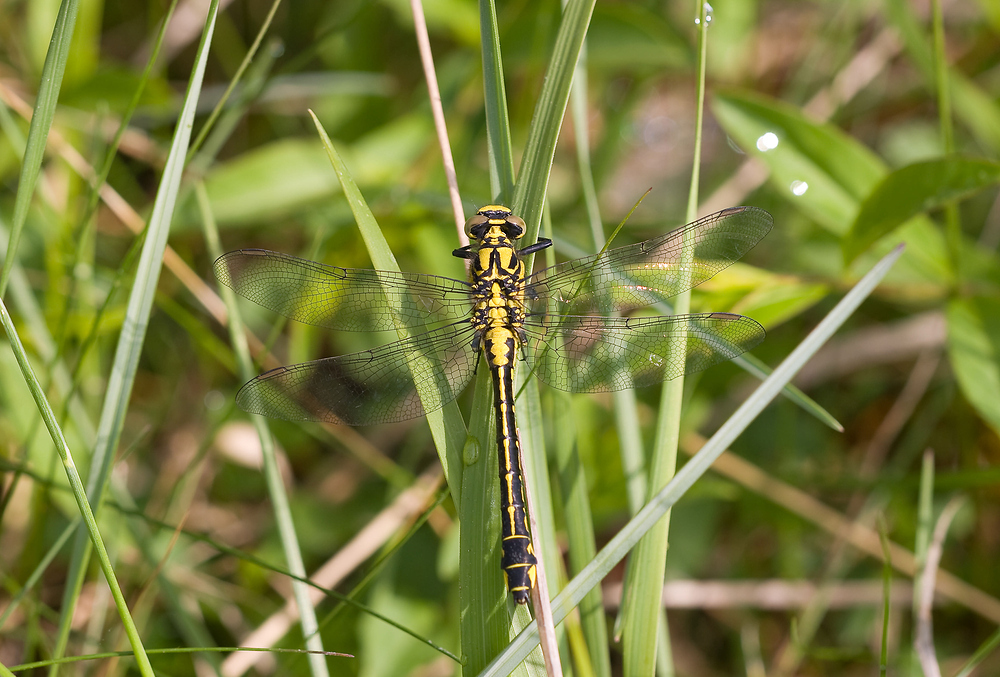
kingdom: Animalia
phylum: Arthropoda
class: Insecta
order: Odonata
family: Gomphidae
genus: Gomphus
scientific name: Gomphus vulgatissimus
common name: Club-tailed dragonfly
